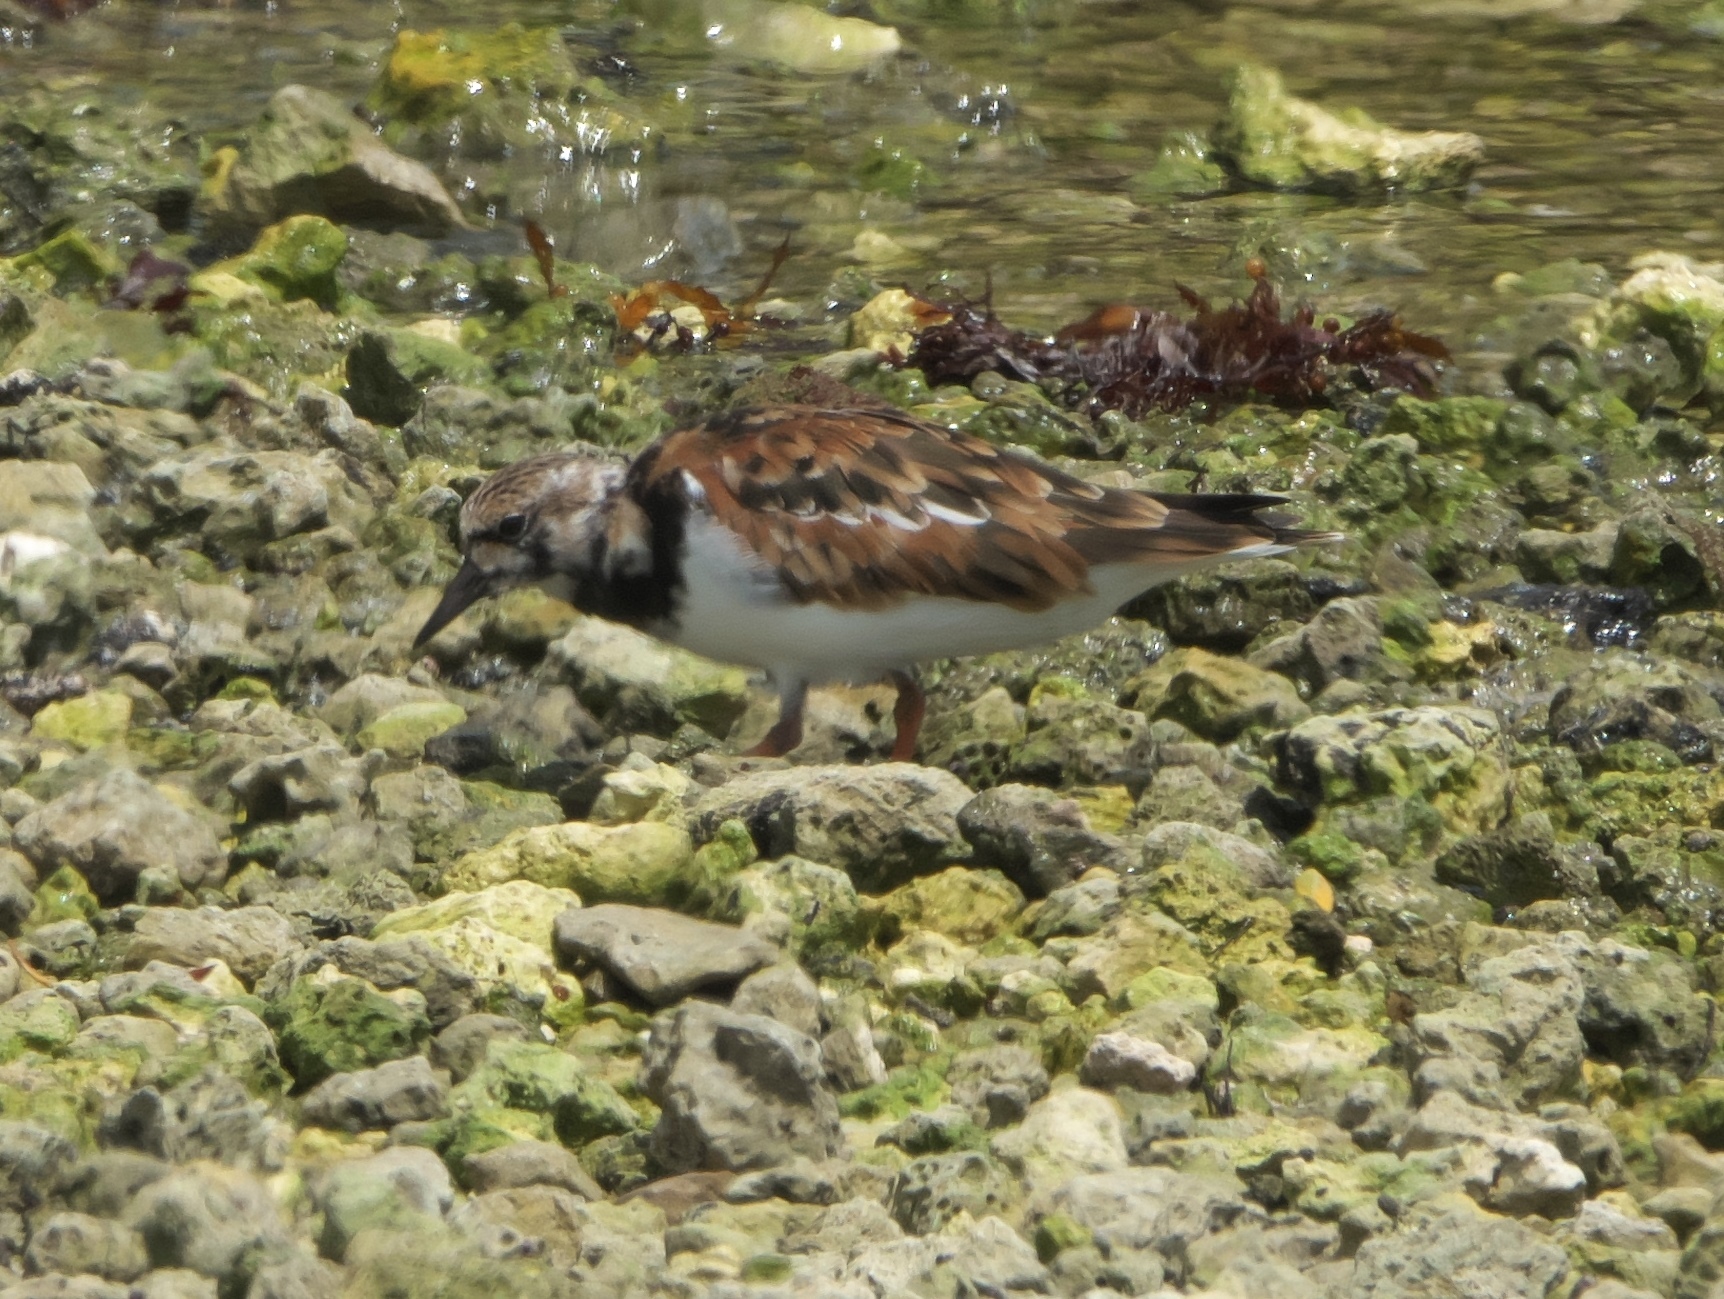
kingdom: Animalia
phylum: Chordata
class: Aves
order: Charadriiformes
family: Scolopacidae
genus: Arenaria
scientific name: Arenaria interpres
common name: Ruddy turnstone
